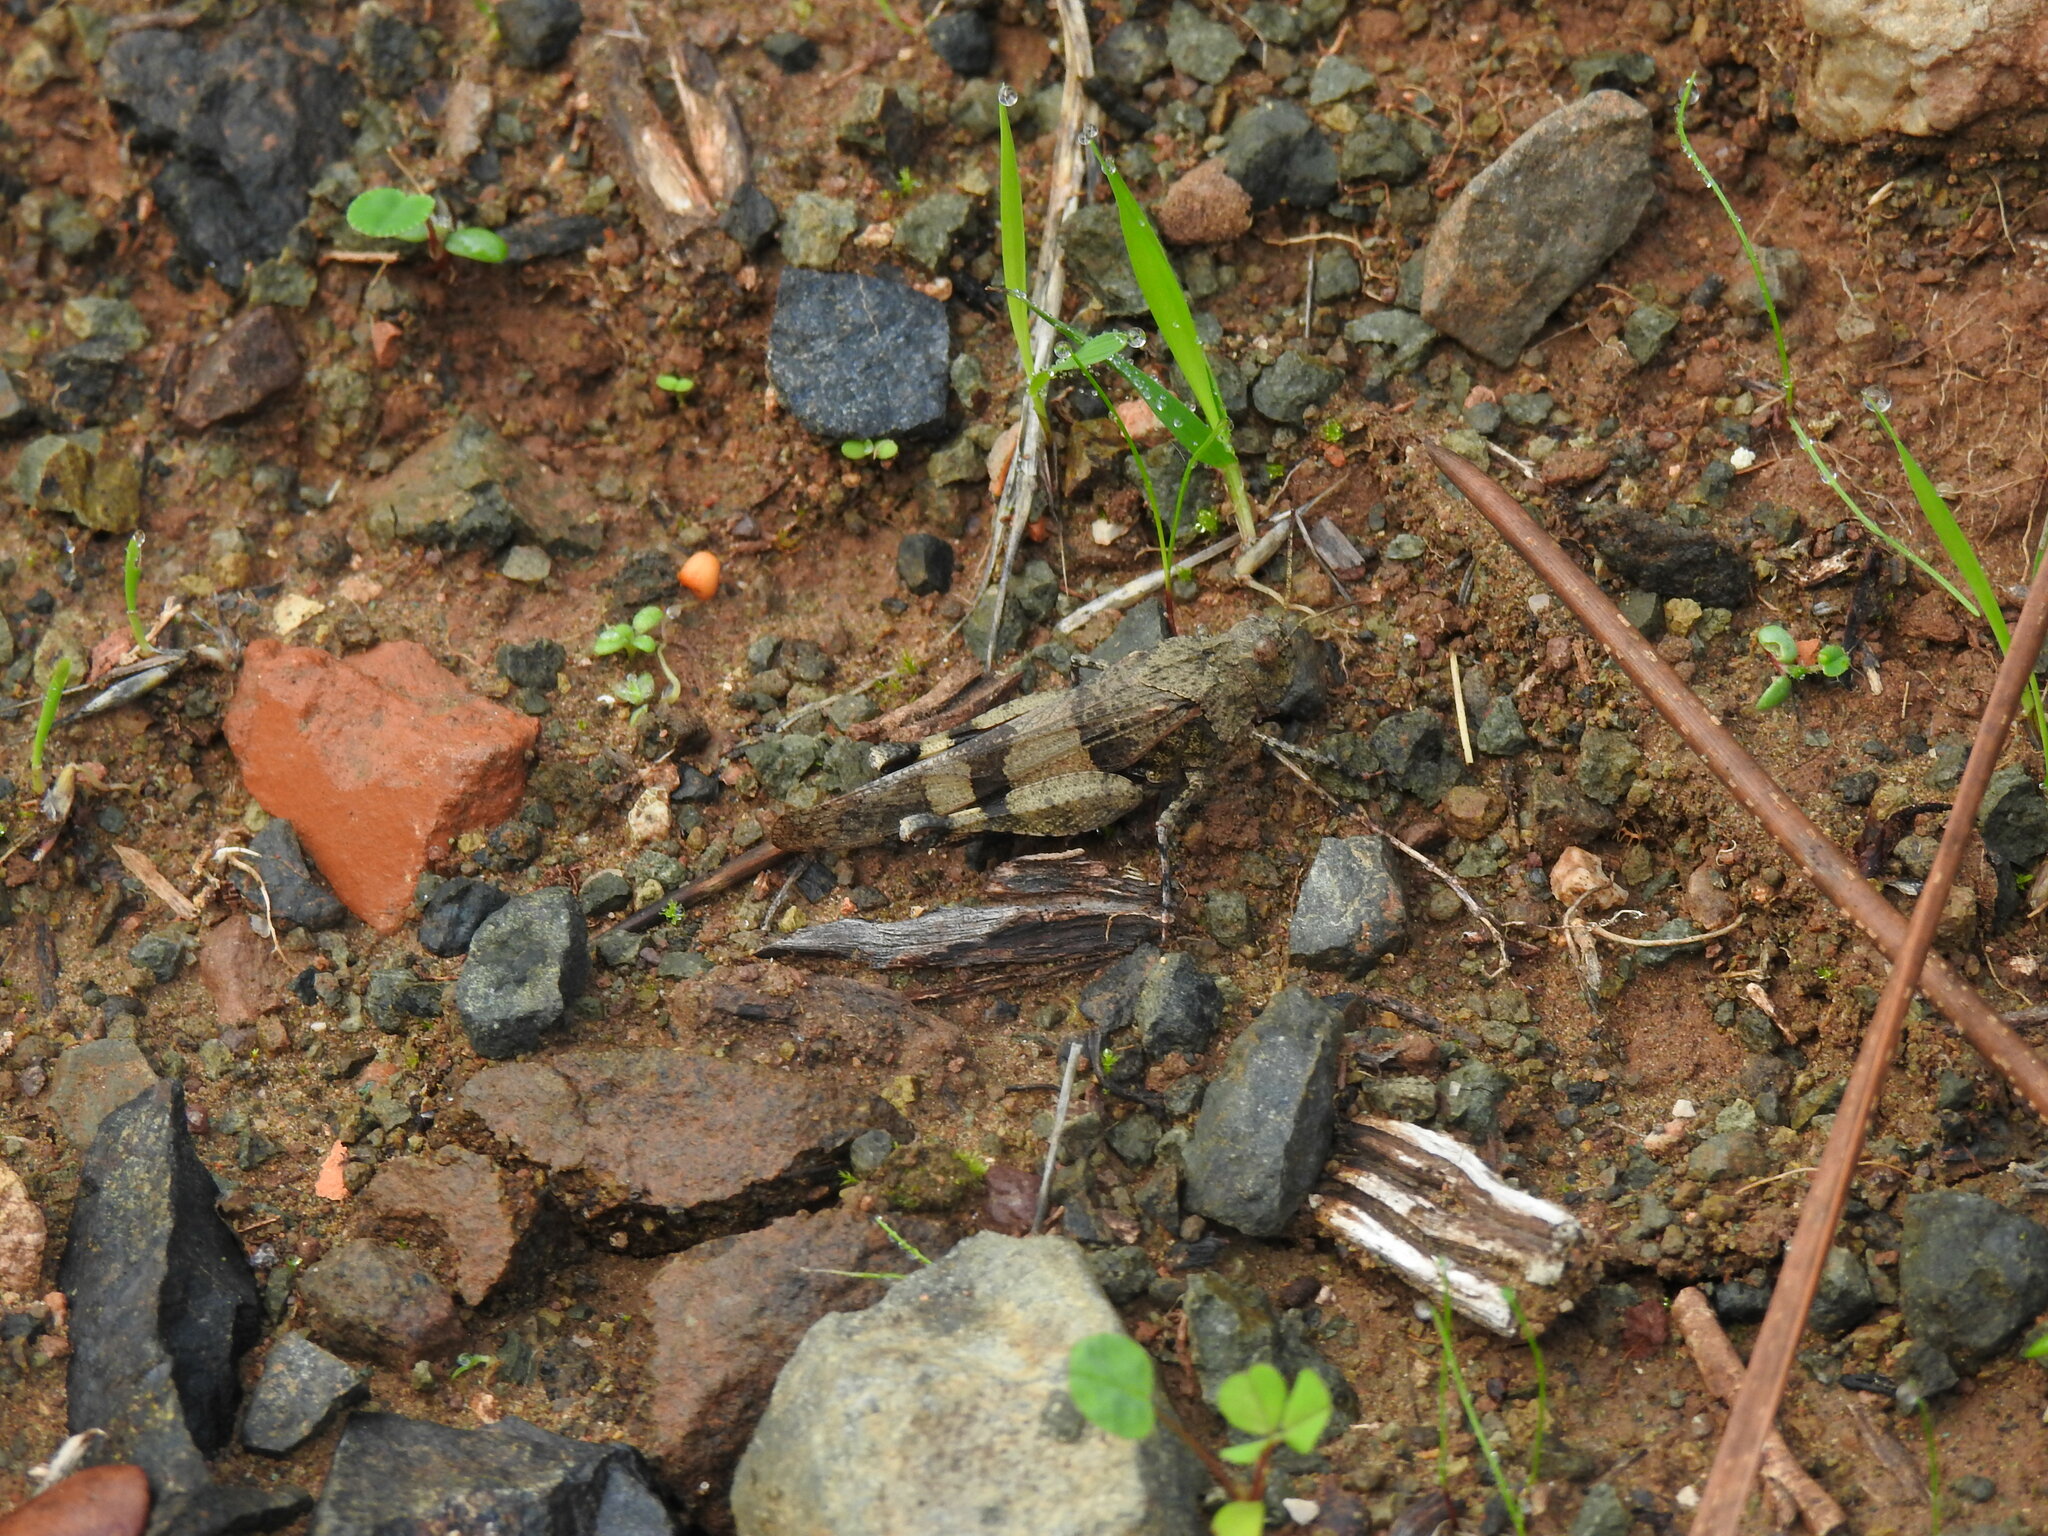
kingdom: Animalia
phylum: Arthropoda
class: Insecta
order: Orthoptera
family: Acrididae
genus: Oedipoda
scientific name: Oedipoda caerulescens
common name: Blue-winged grasshopper
